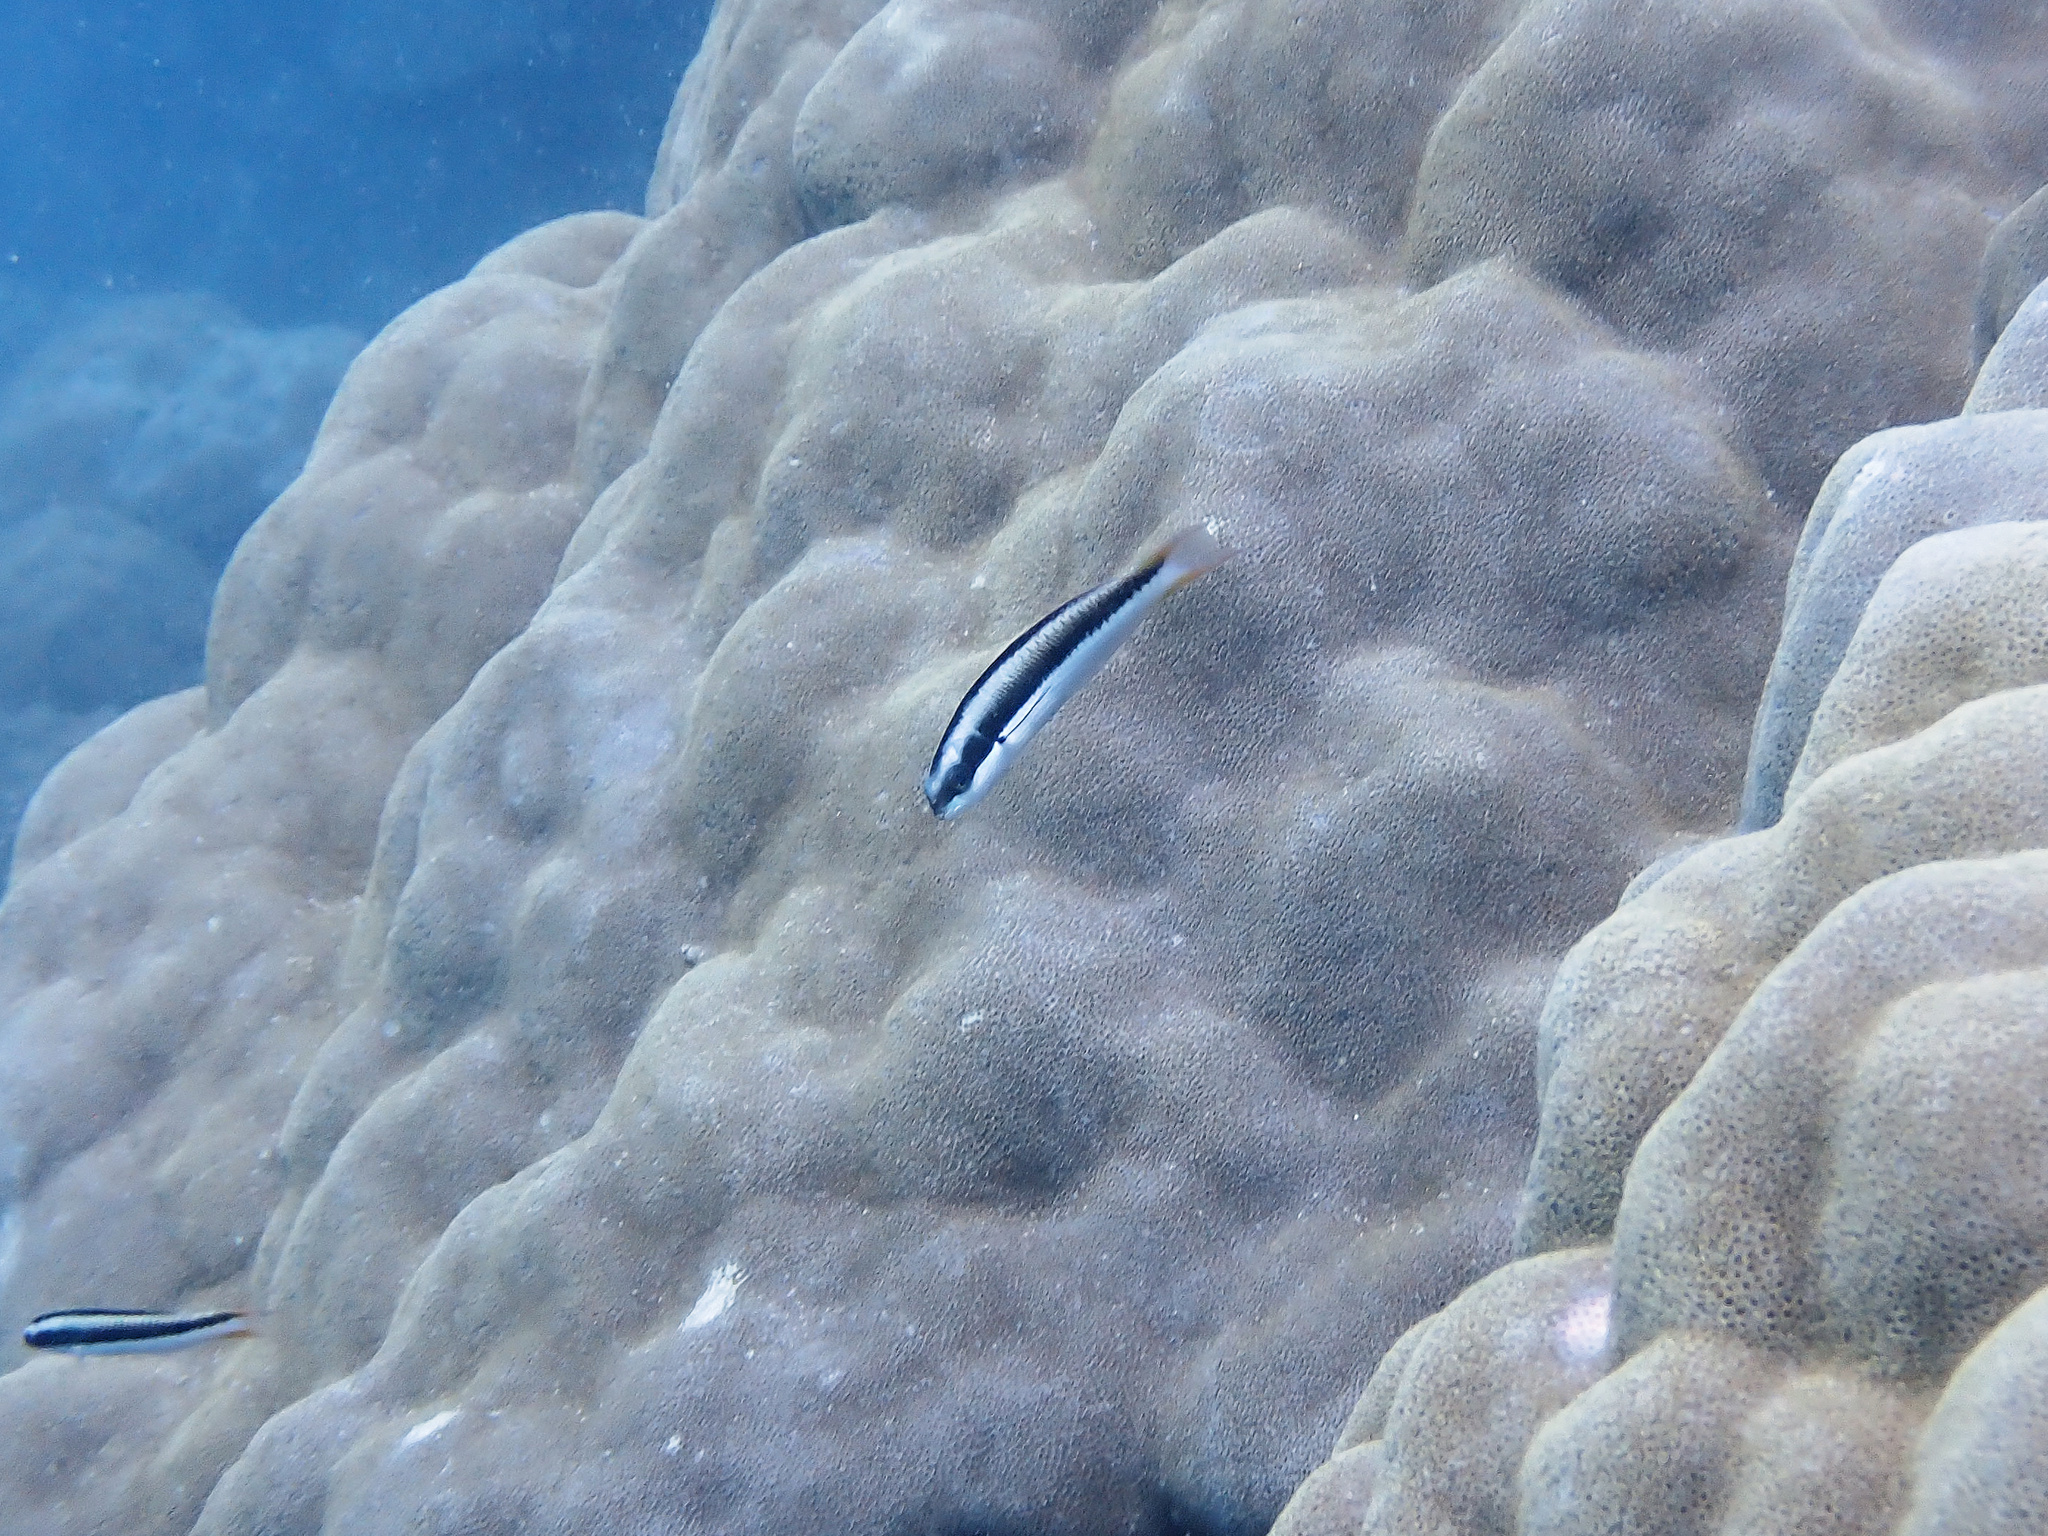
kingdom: Animalia
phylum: Chordata
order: Perciformes
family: Labridae
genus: Thalassoma
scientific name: Thalassoma amblycephalum
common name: Bluehead wrasse
